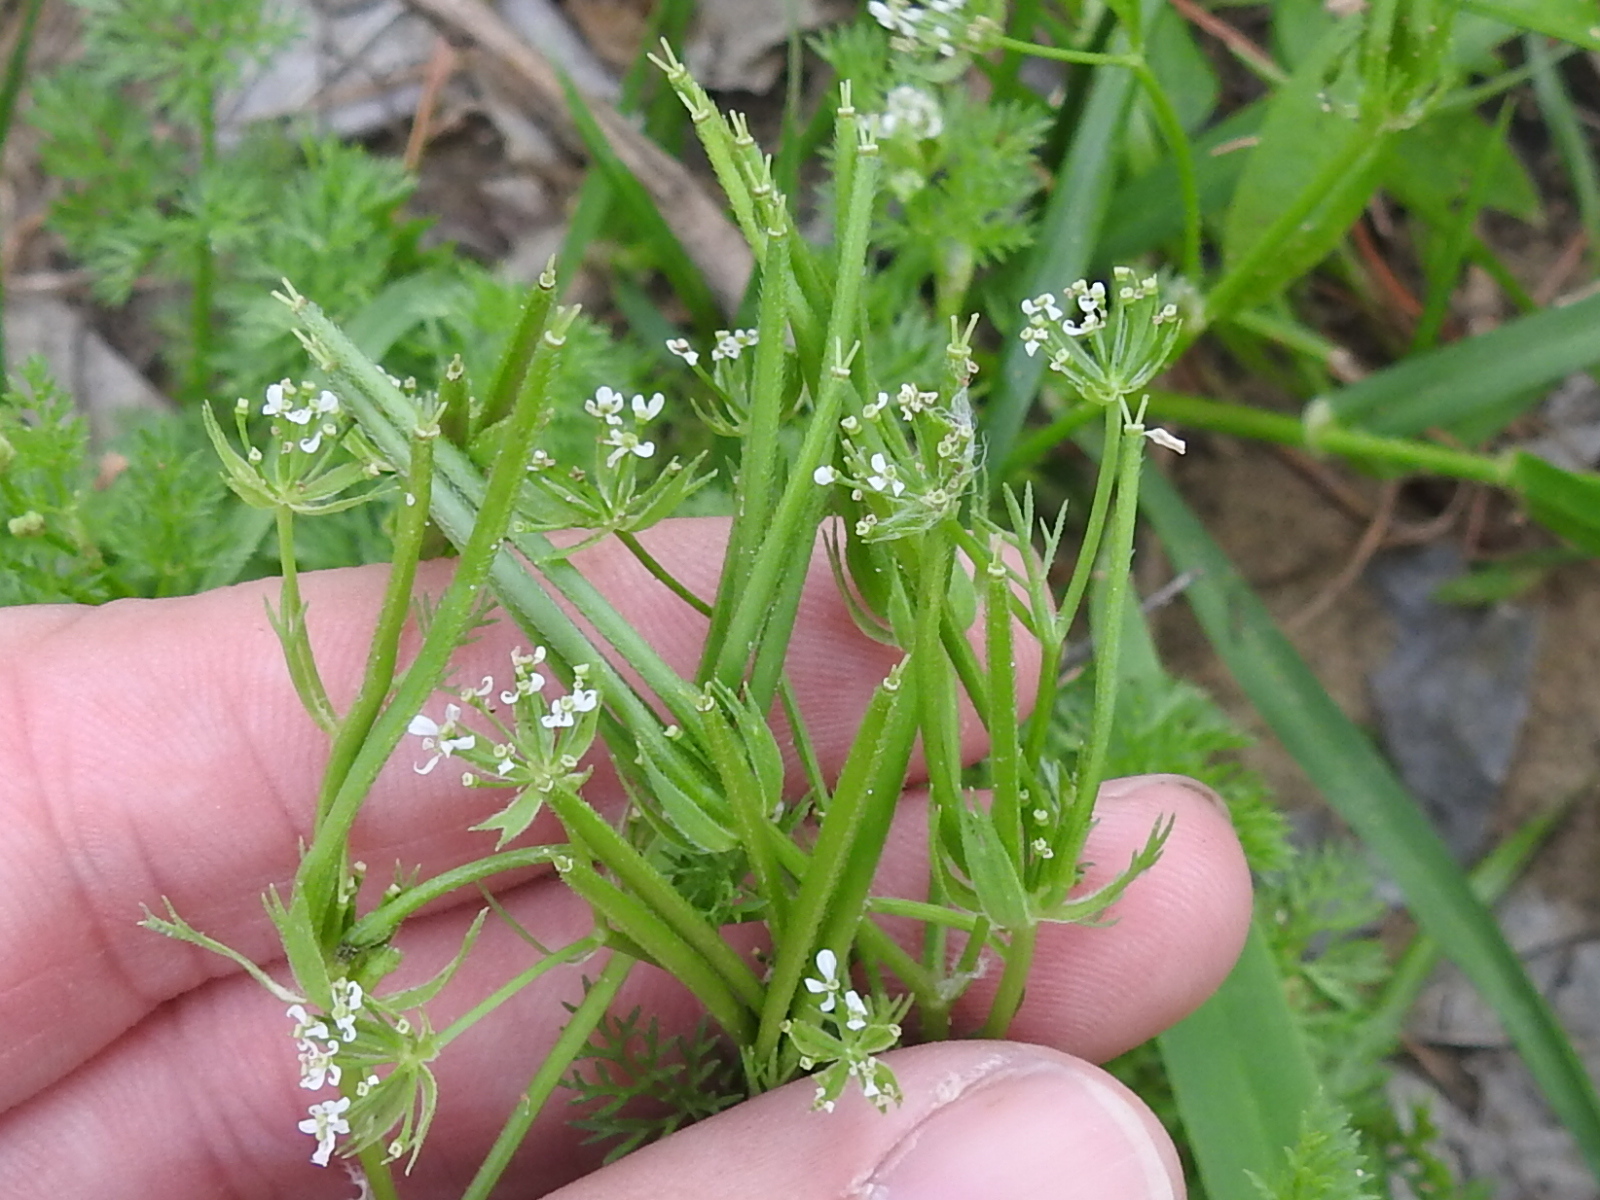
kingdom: Plantae
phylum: Tracheophyta
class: Magnoliopsida
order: Apiales
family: Apiaceae
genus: Scandix
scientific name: Scandix pecten-veneris
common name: Shepherd's-needle
